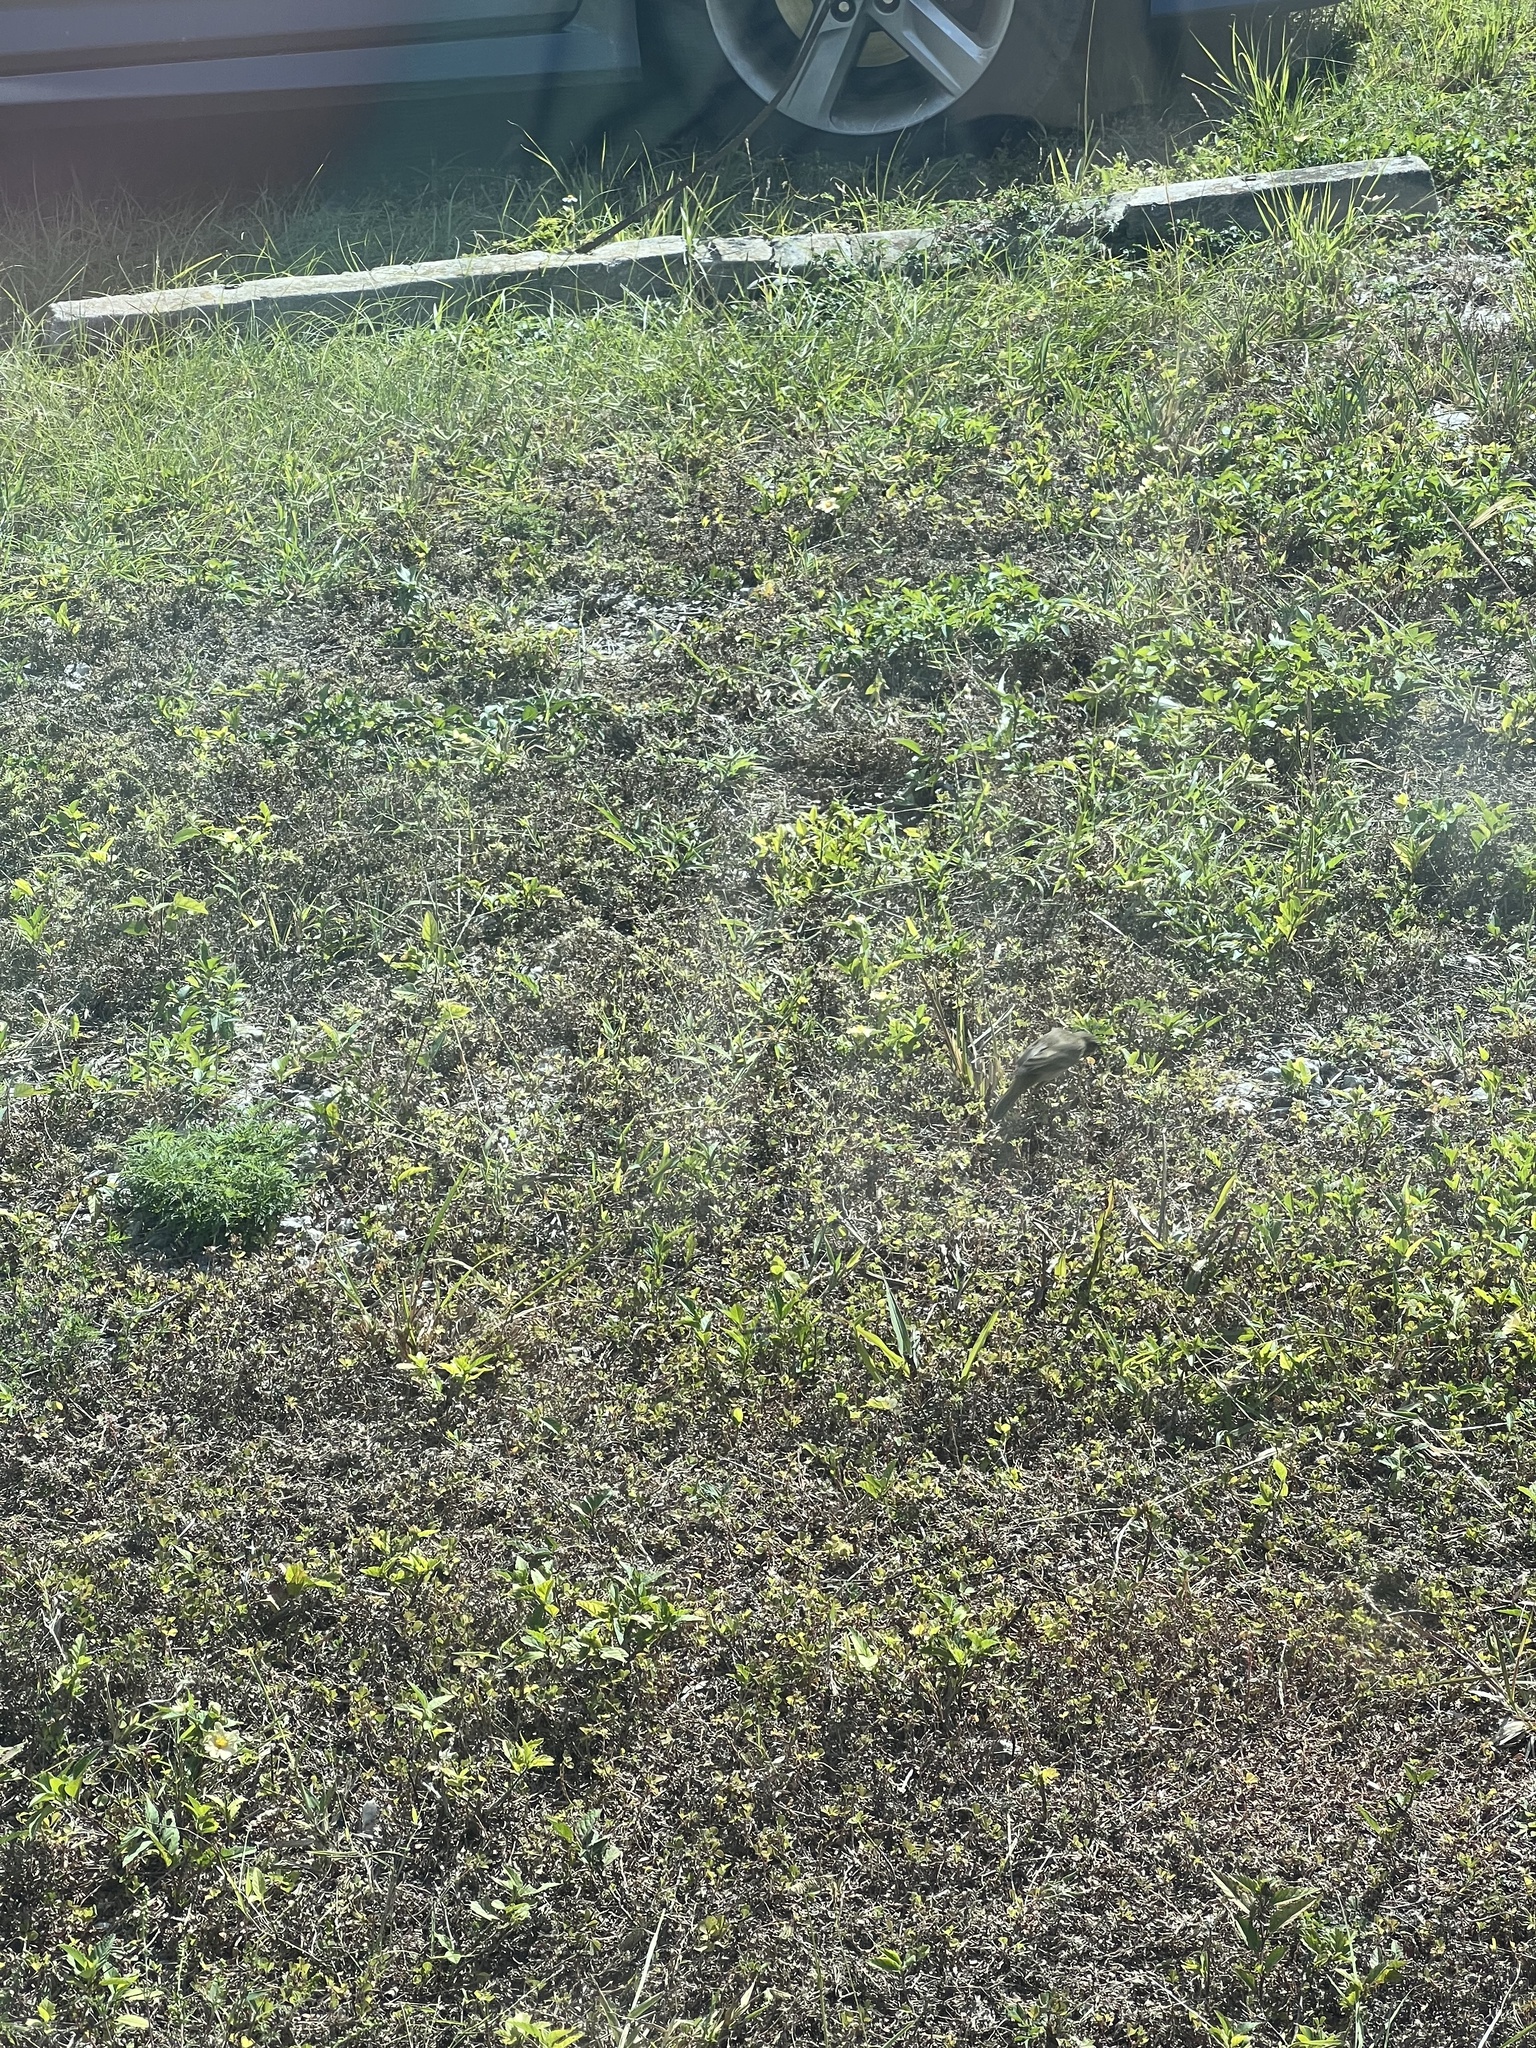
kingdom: Animalia
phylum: Chordata
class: Aves
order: Passeriformes
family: Parulidae
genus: Setophaga
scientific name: Setophaga palmarum
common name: Palm warbler
